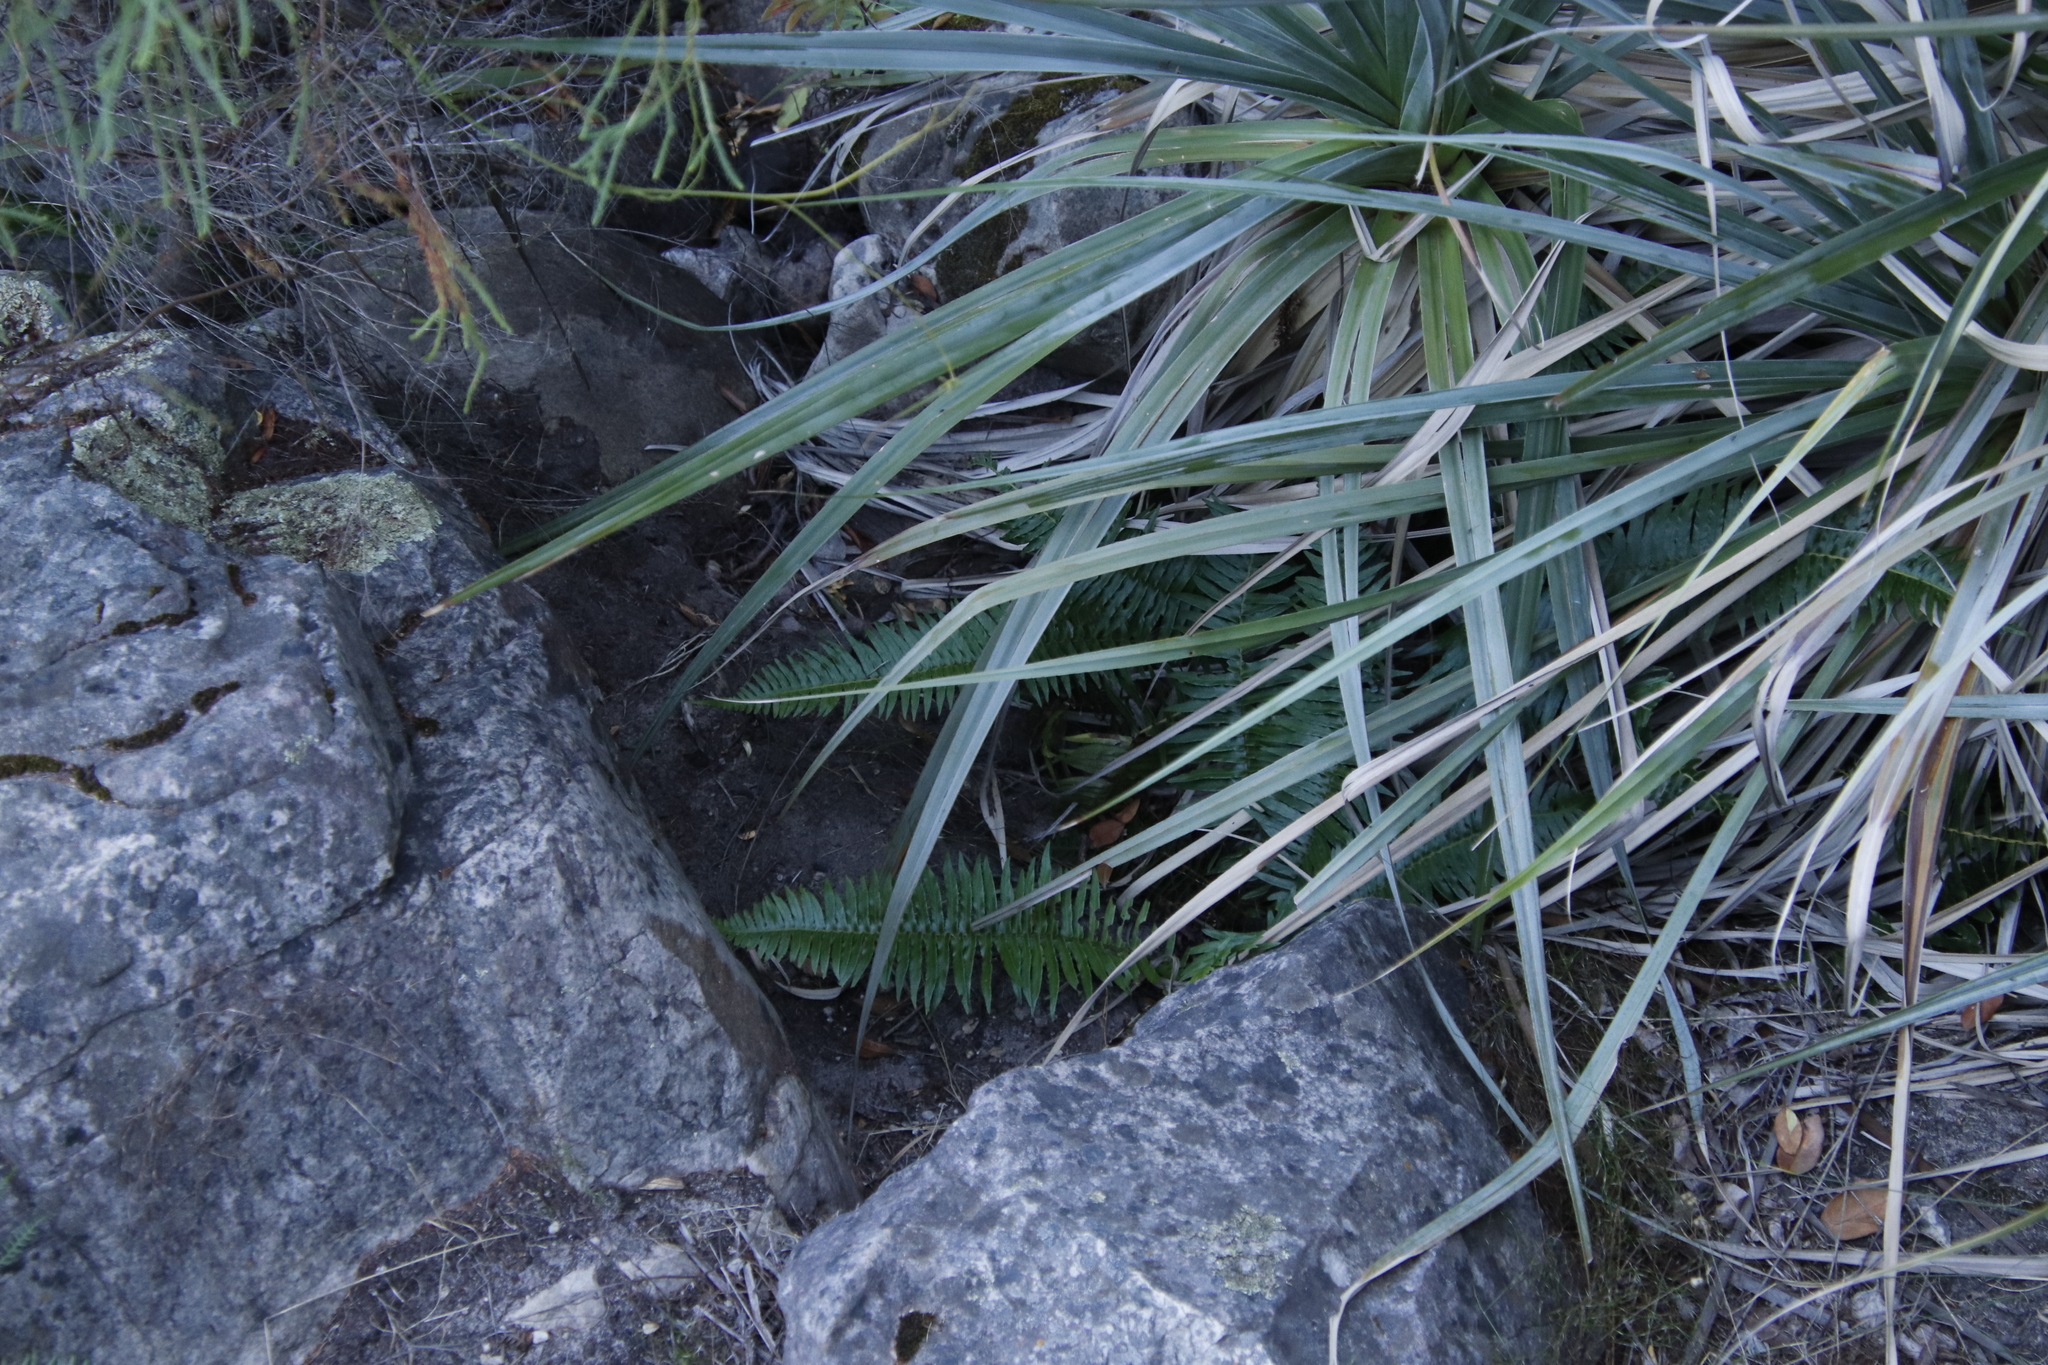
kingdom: Plantae
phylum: Tracheophyta
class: Polypodiopsida
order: Polypodiales
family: Blechnaceae
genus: Blechnum
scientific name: Blechnum punctulatum
